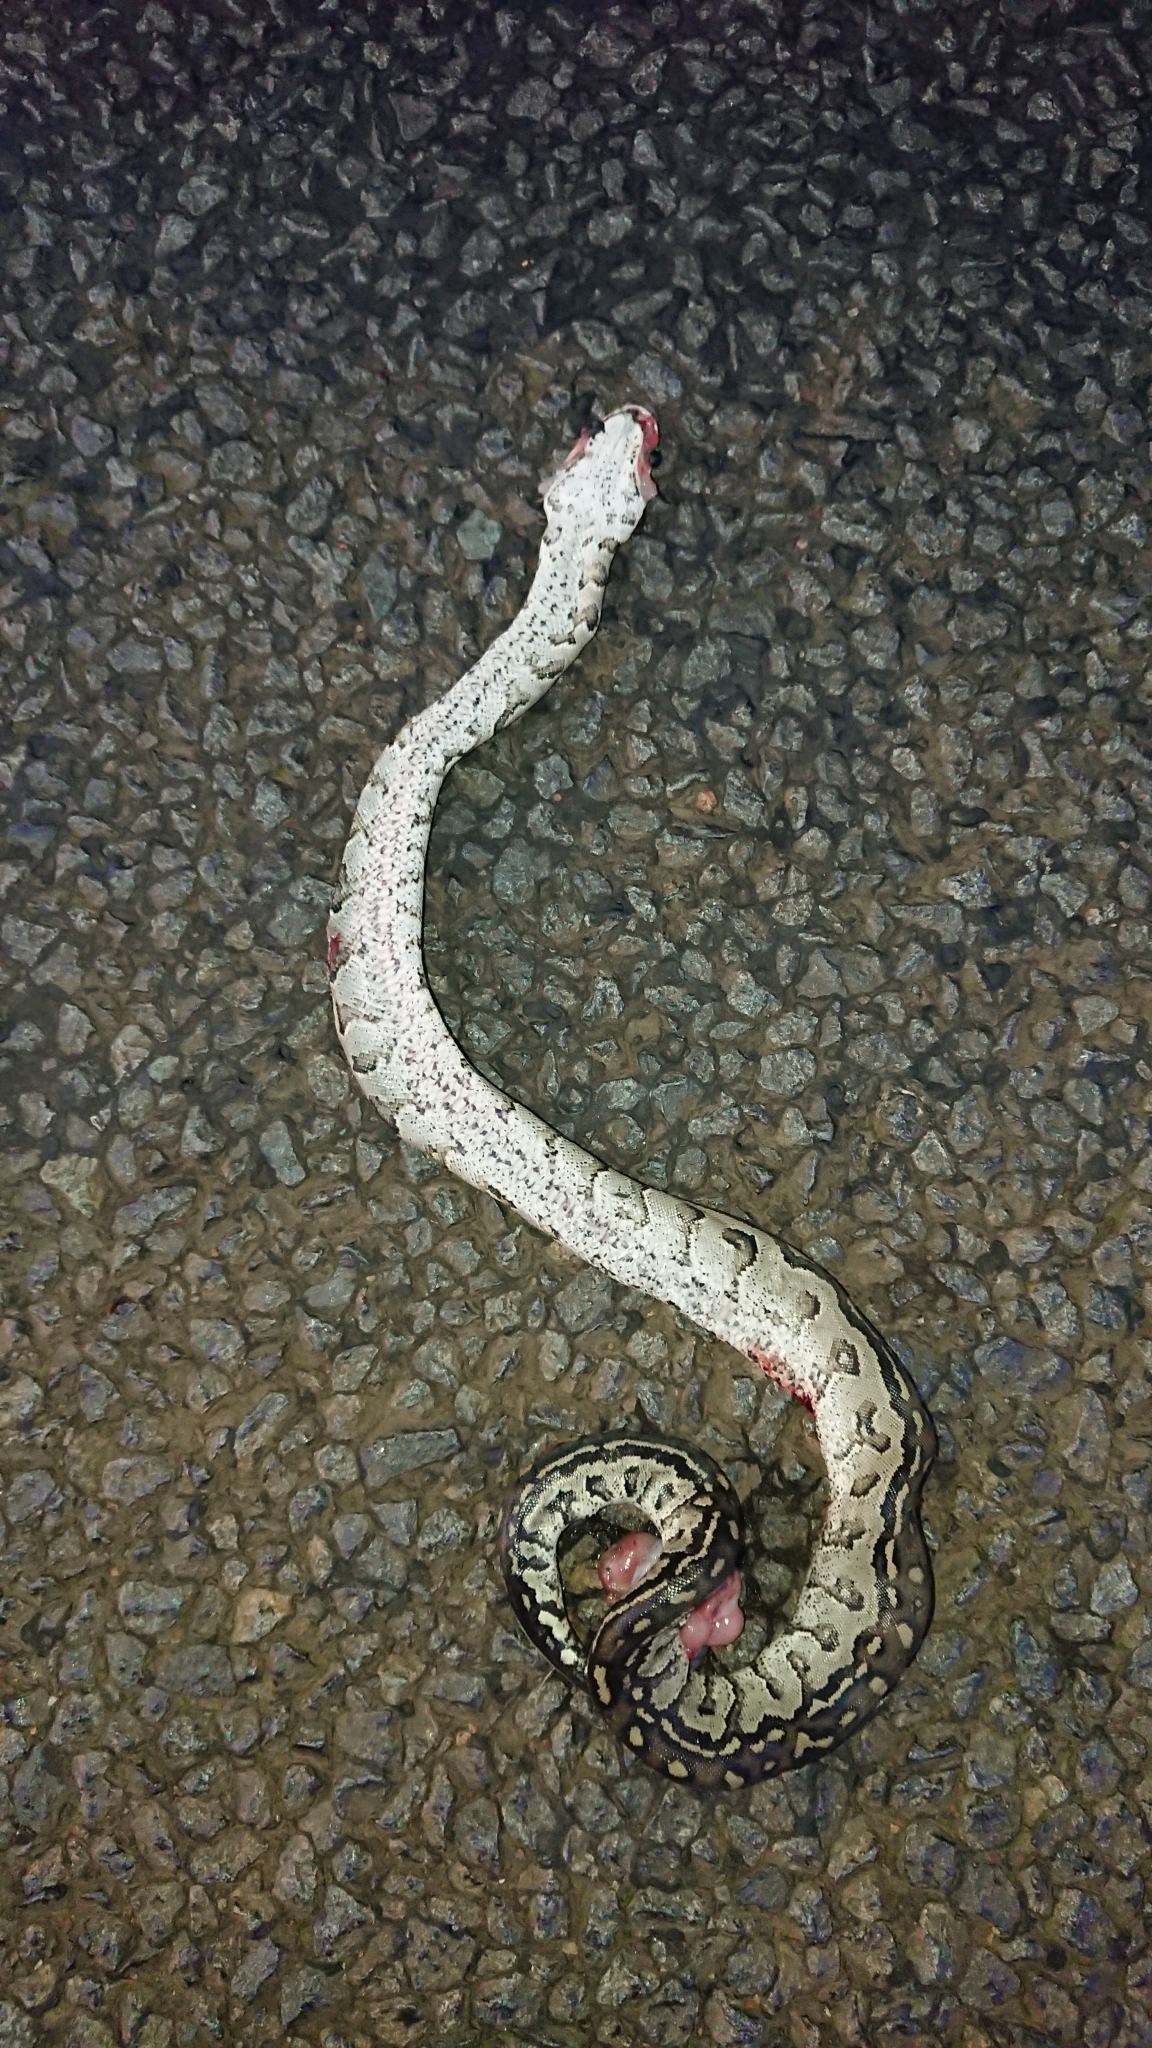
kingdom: Animalia
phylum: Chordata
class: Squamata
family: Pythonidae
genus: Python
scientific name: Python natalensis
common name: Southern african rock python
